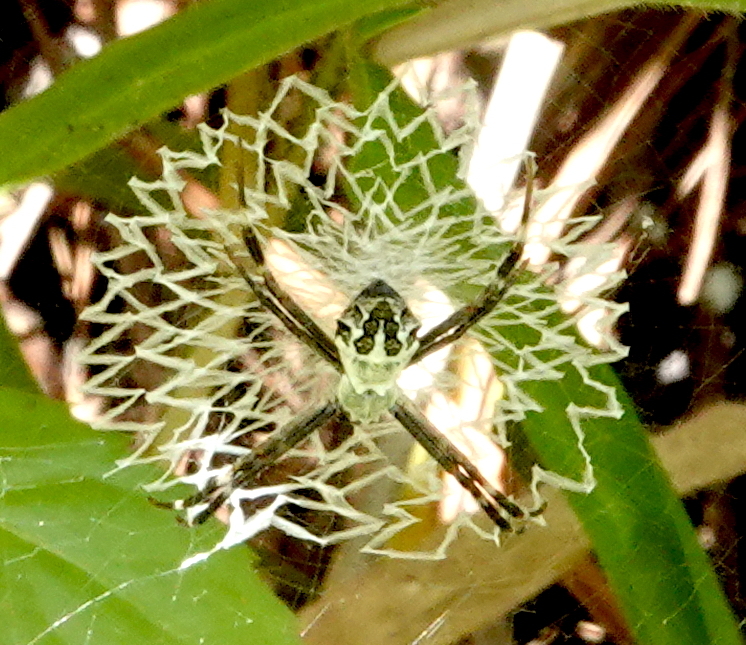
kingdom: Animalia
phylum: Arthropoda
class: Arachnida
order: Araneae
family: Araneidae
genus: Argiope
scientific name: Argiope argentata
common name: Orb weavers
